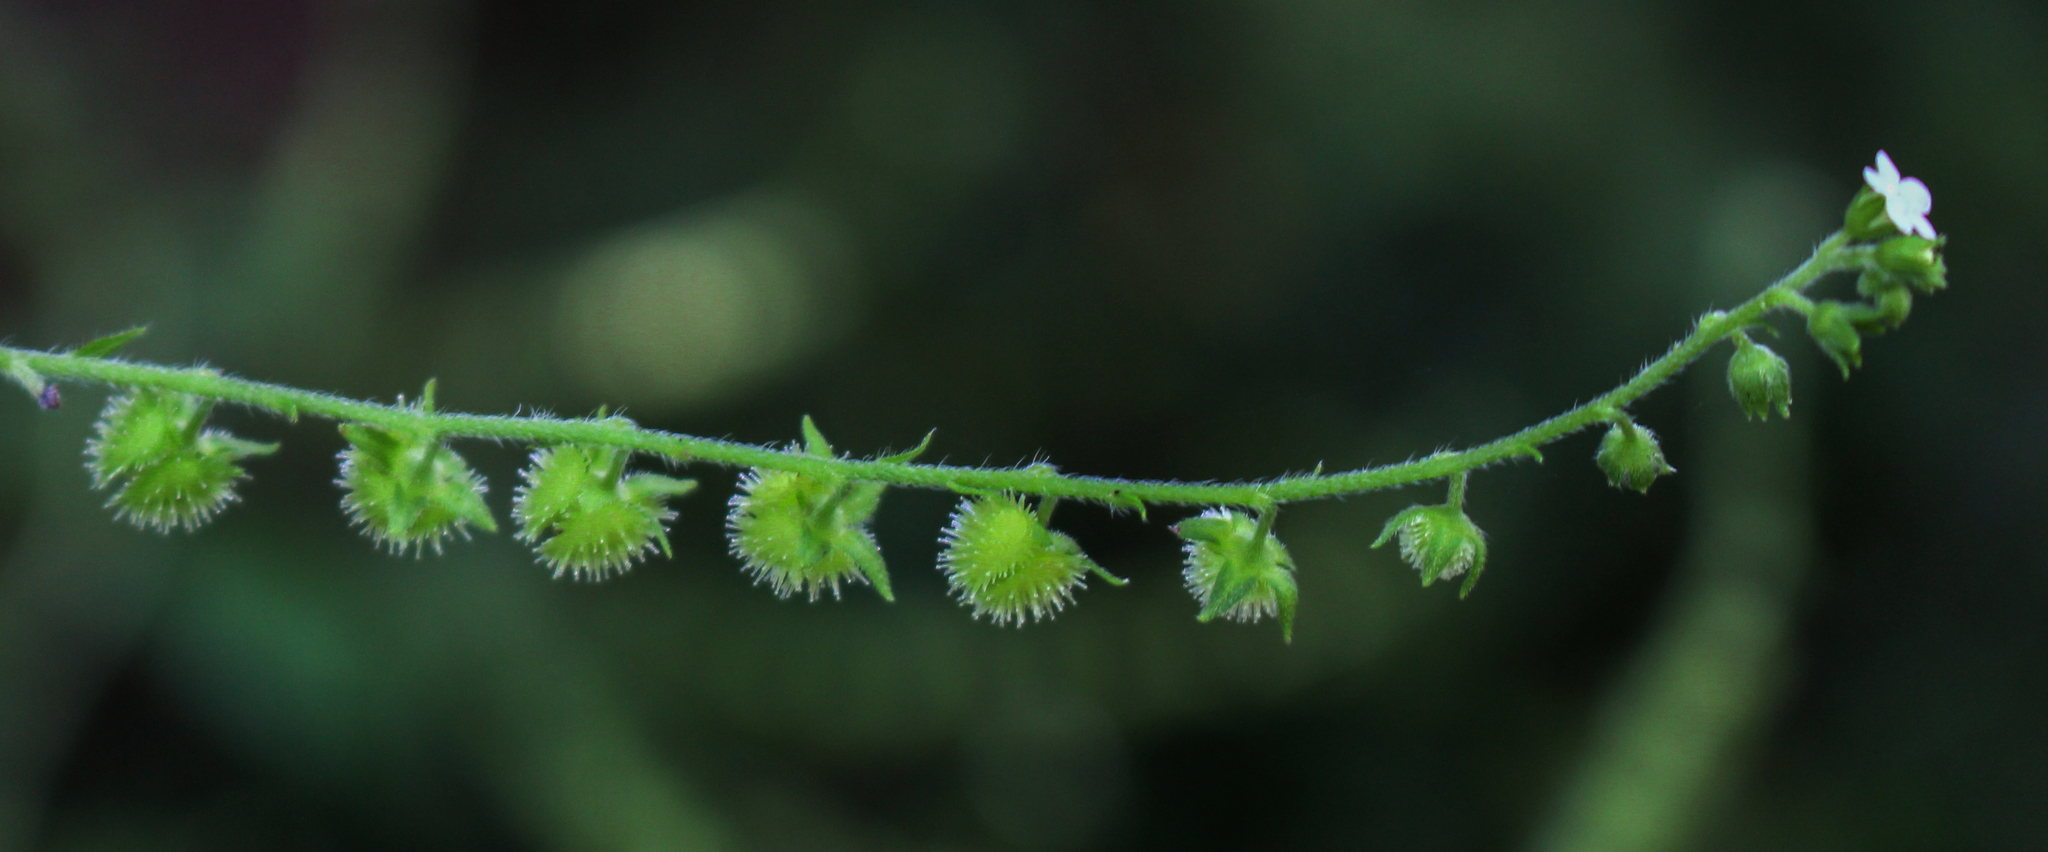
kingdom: Plantae
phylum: Tracheophyta
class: Magnoliopsida
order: Boraginales
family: Boraginaceae
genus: Hackelia
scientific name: Hackelia virginiana
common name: Beggar's-lice
